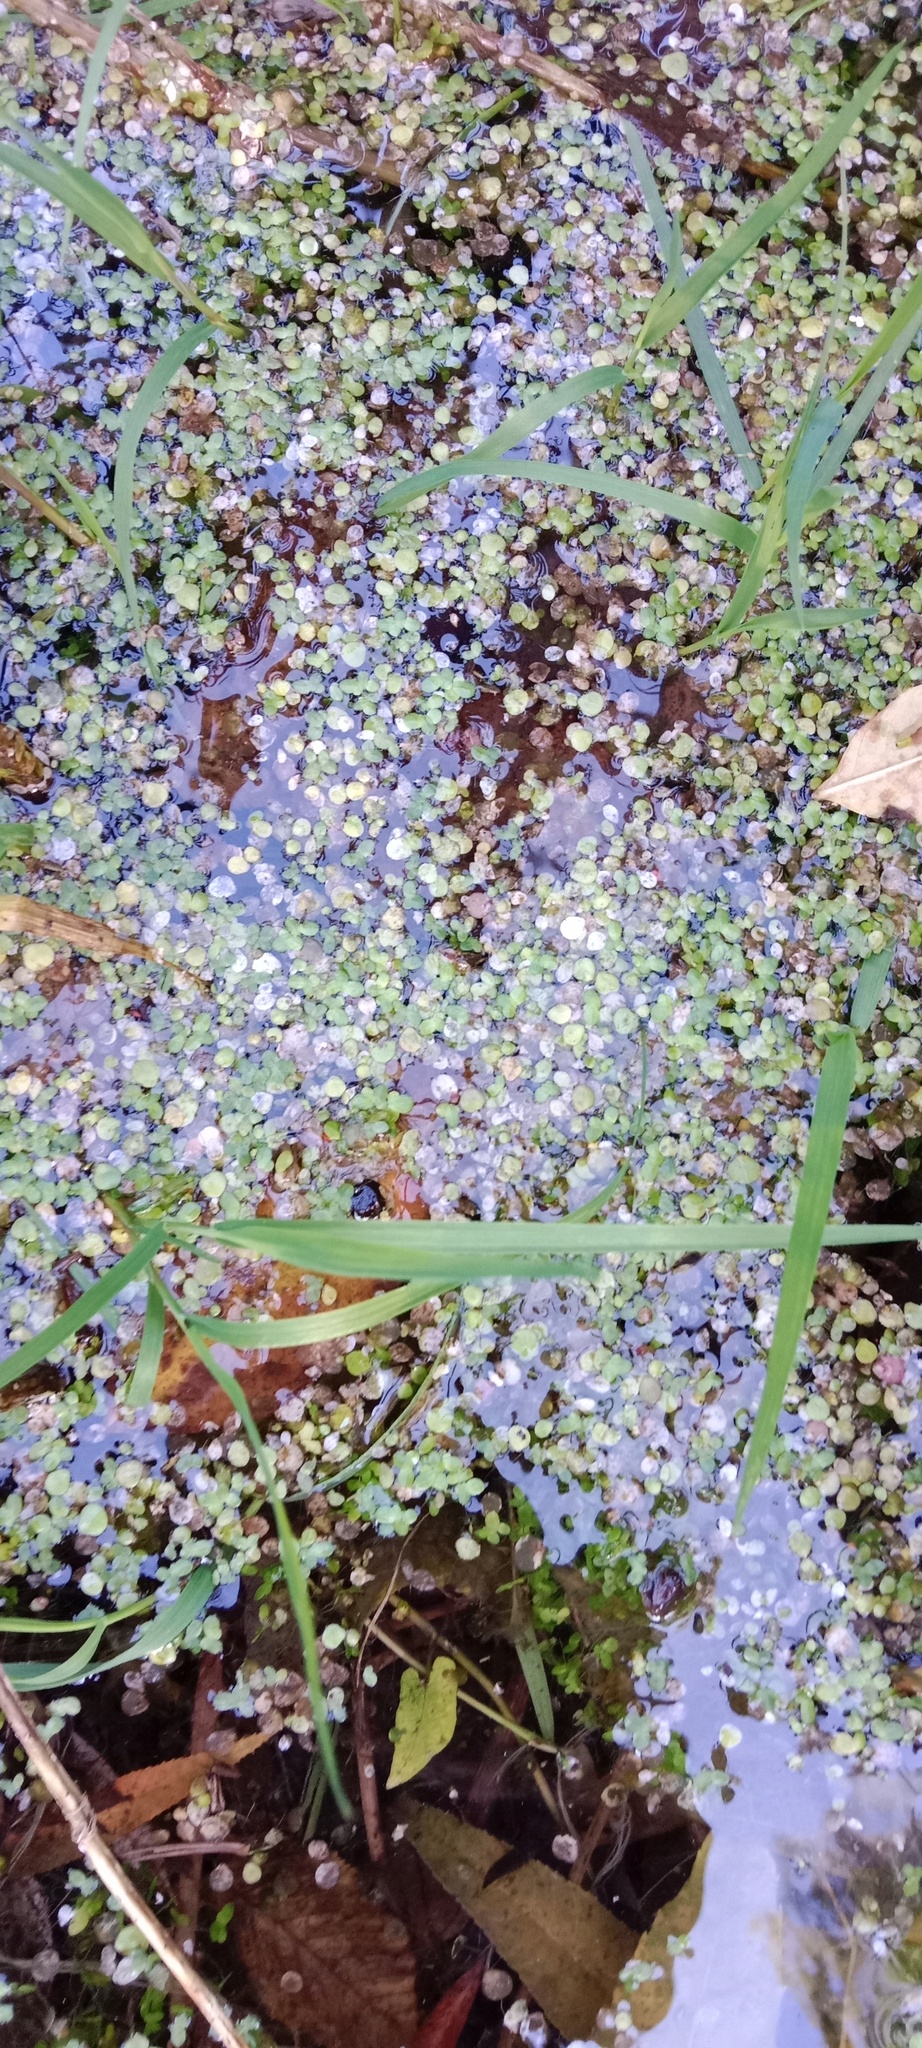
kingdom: Plantae
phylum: Tracheophyta
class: Liliopsida
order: Alismatales
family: Araceae
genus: Spirodela
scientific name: Spirodela polyrhiza
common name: Great duckweed
